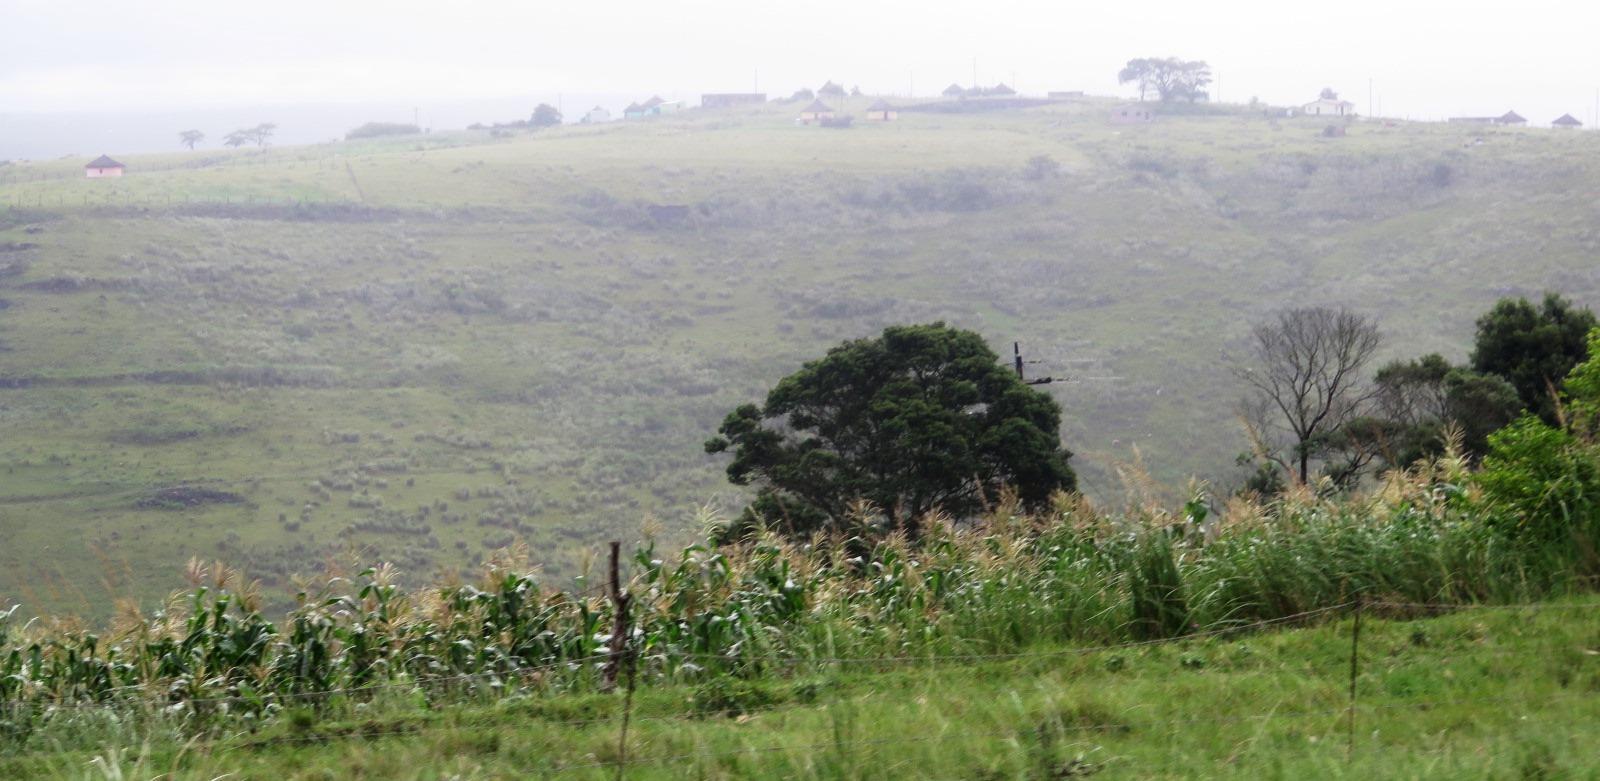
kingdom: Plantae
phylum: Tracheophyta
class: Magnoliopsida
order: Fabales
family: Fabaceae
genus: Acacia
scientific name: Acacia mearnsii
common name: Black wattle
